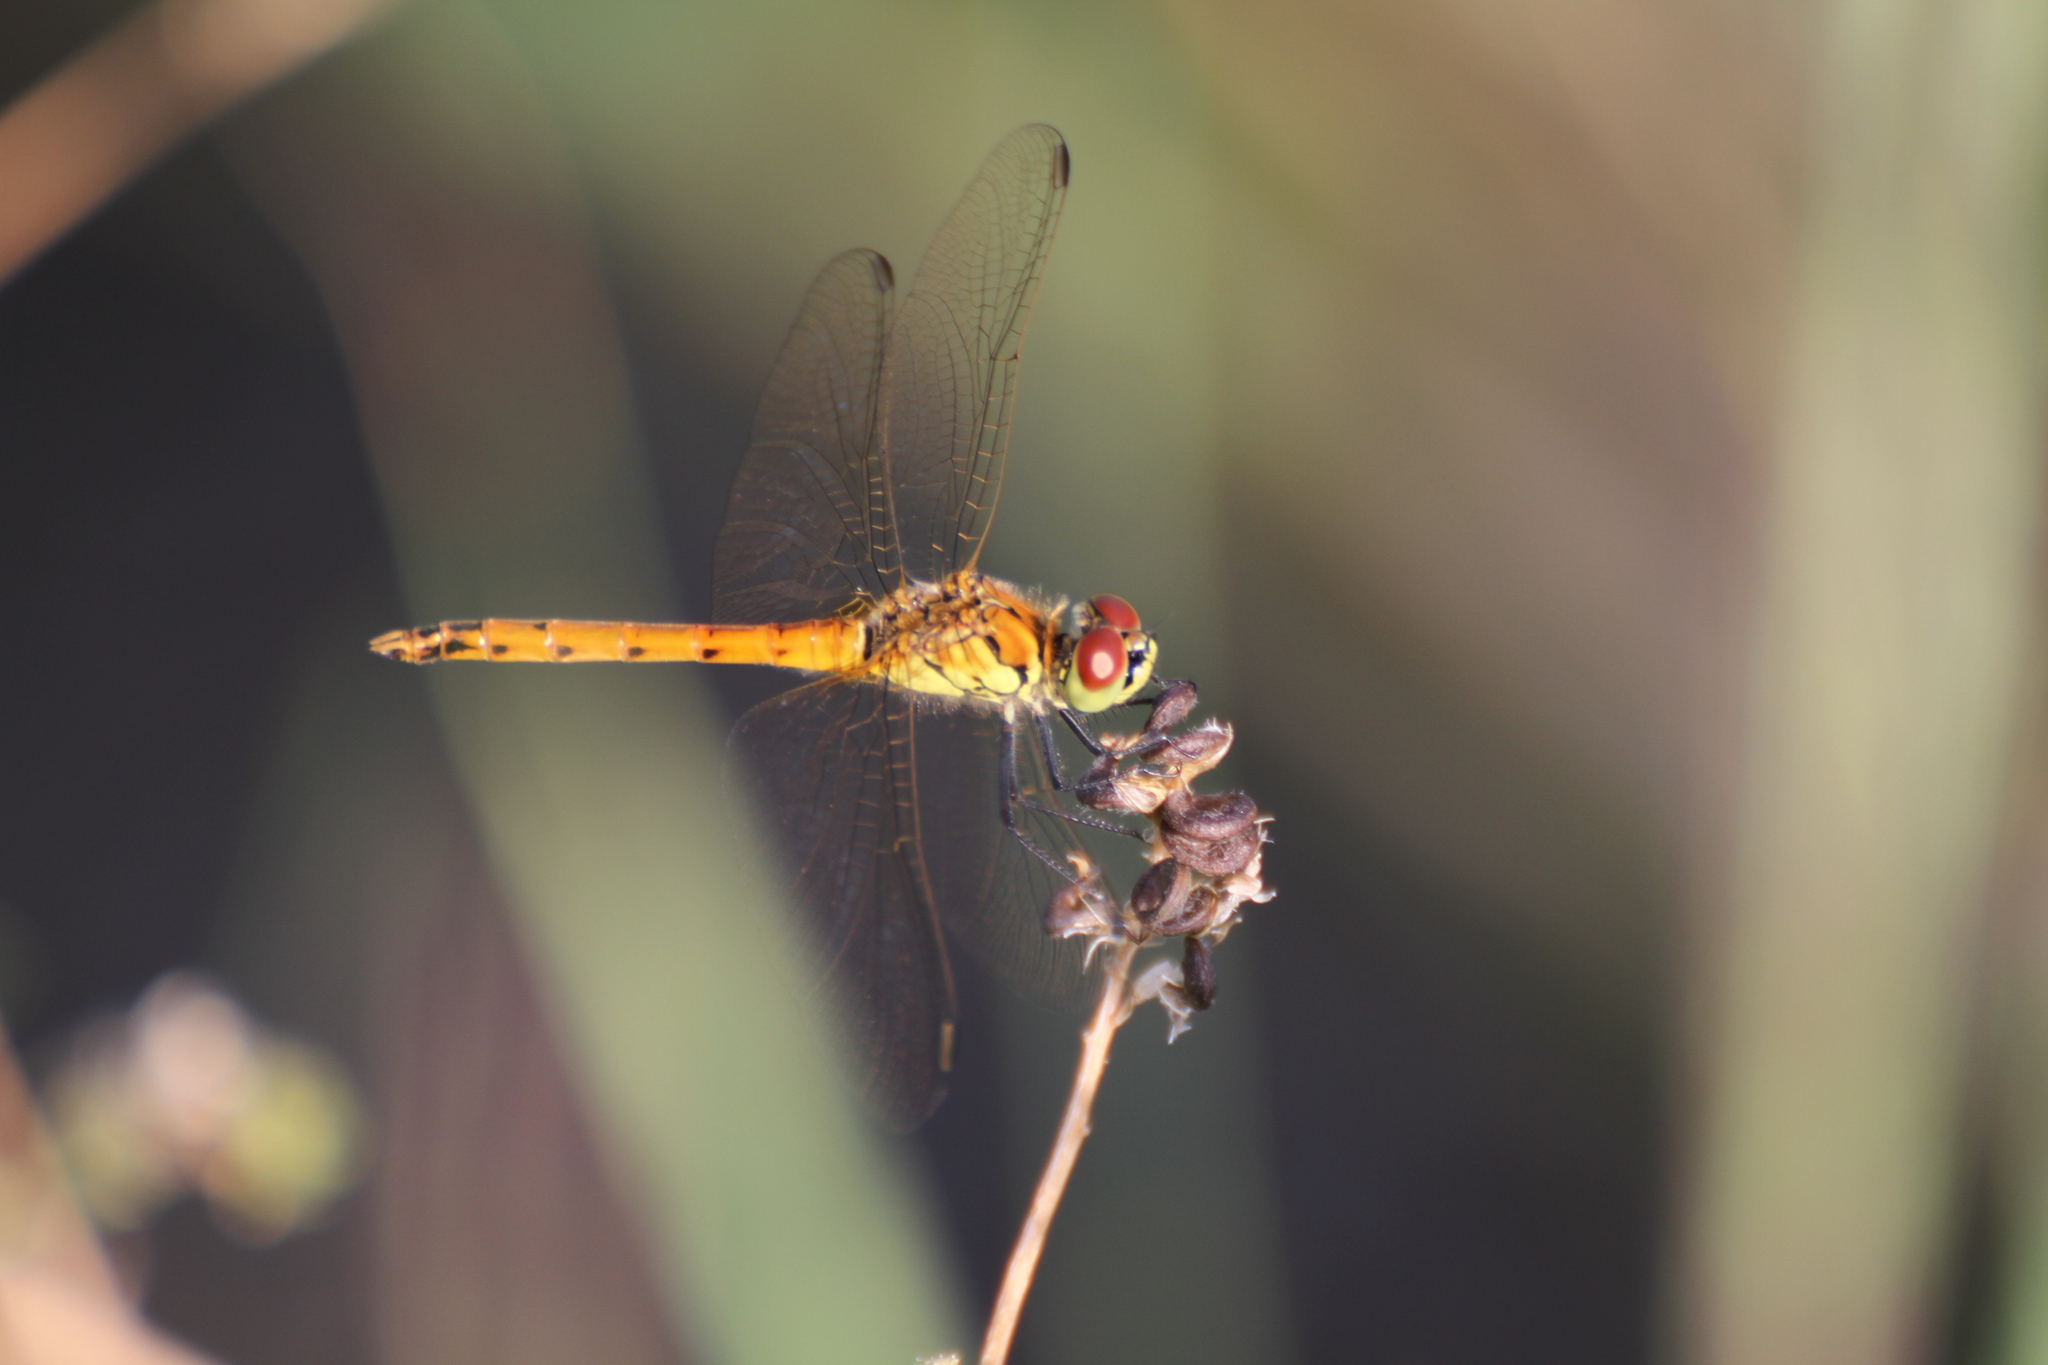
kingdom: Animalia
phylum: Arthropoda
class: Insecta
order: Odonata
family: Libellulidae
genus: Sympetrum
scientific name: Sympetrum depressiusculum
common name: Spotted darter
